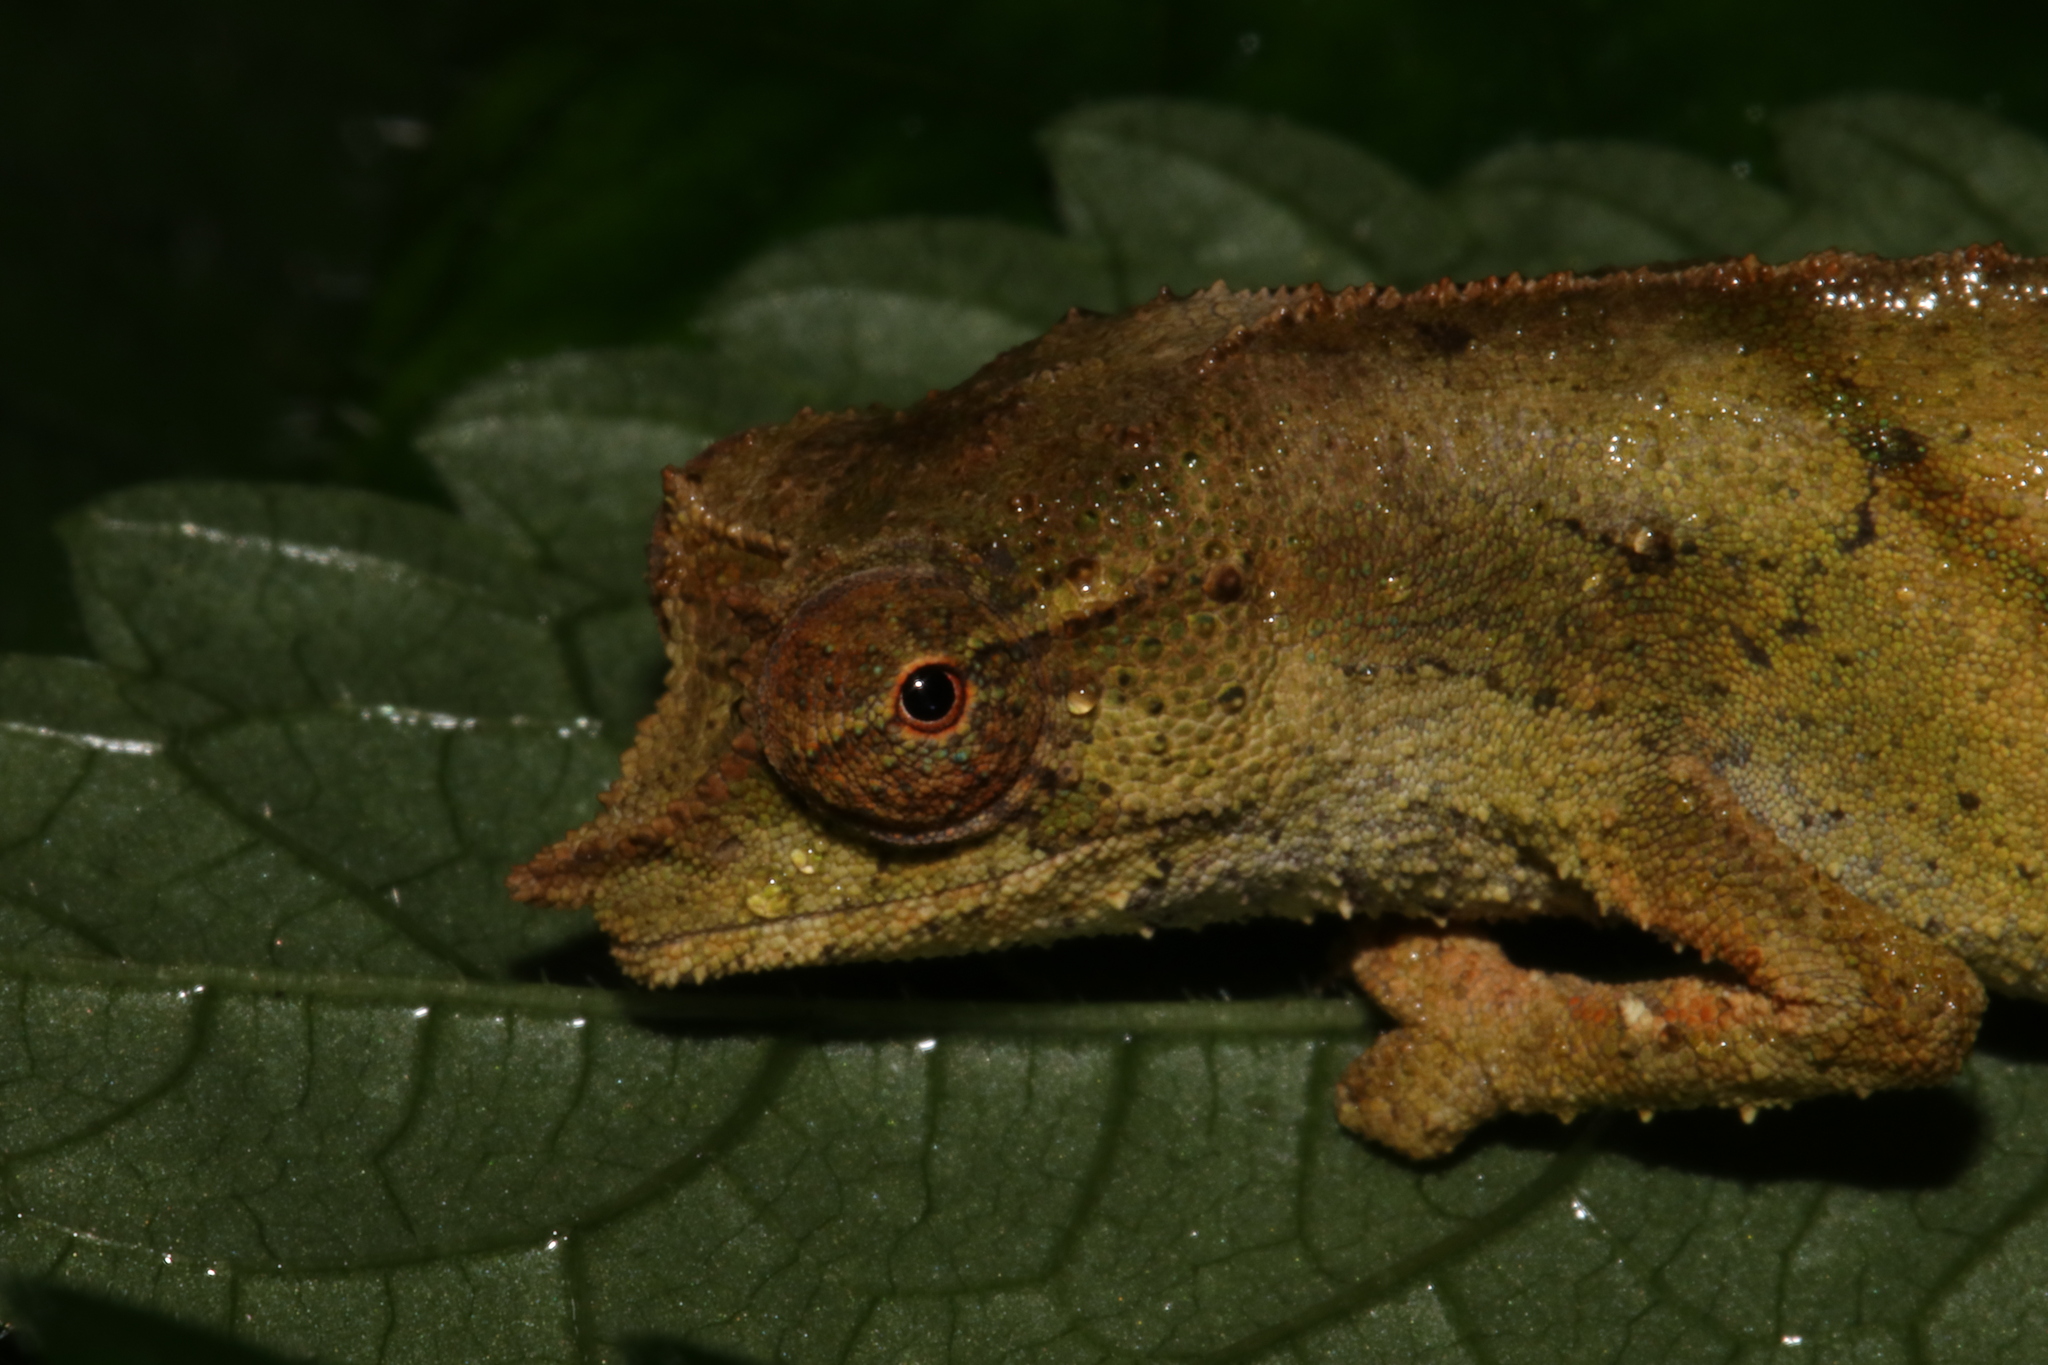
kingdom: Animalia
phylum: Chordata
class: Squamata
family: Chamaeleonidae
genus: Rhampholeon
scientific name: Rhampholeon nchisiensis
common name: South african stumptail chameleon
